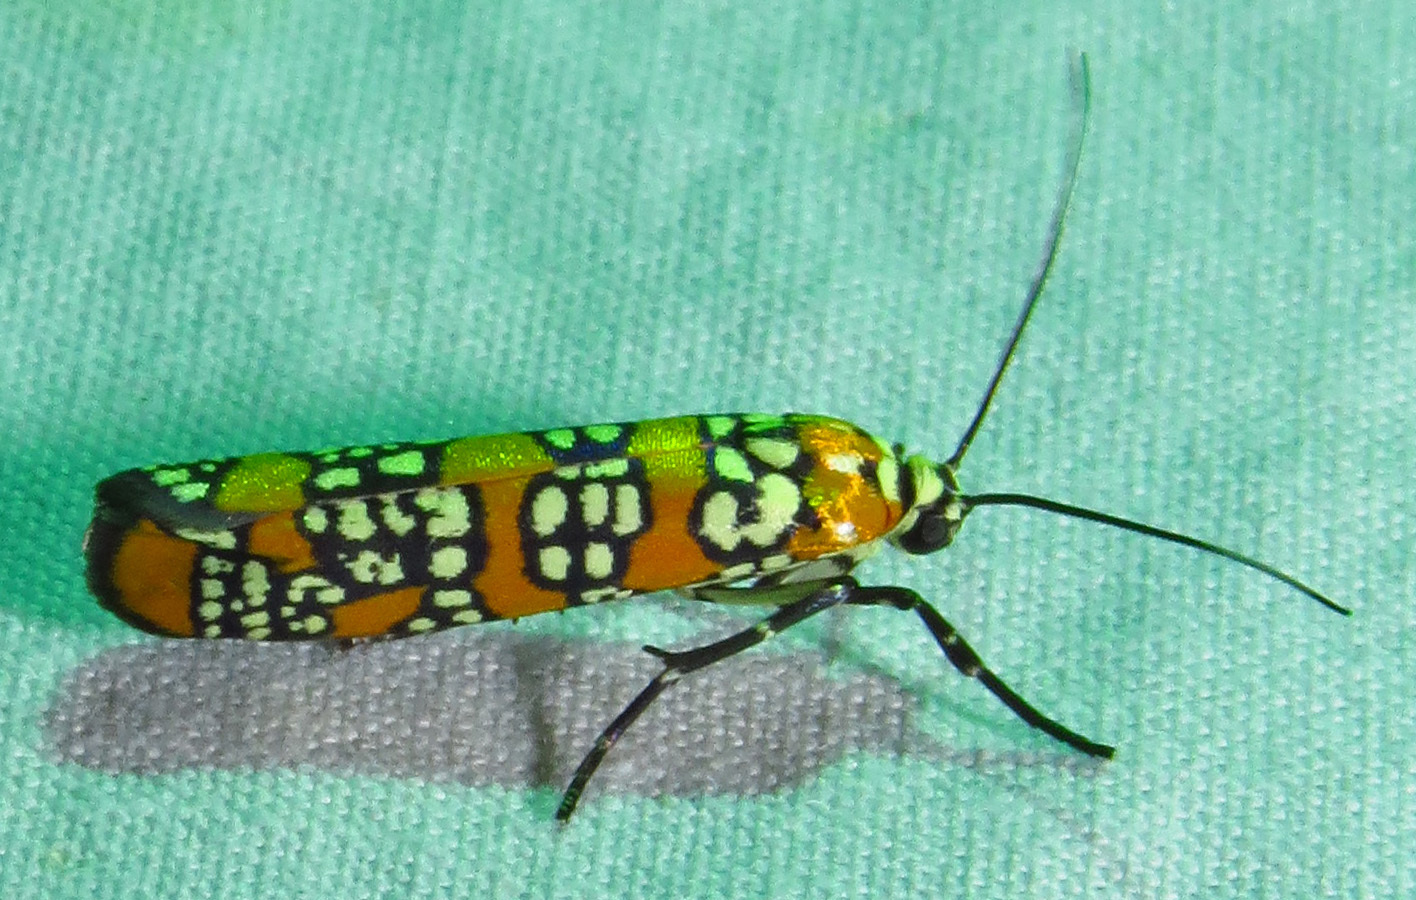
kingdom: Animalia
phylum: Arthropoda
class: Insecta
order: Lepidoptera
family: Attevidae
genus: Atteva
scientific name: Atteva punctella
